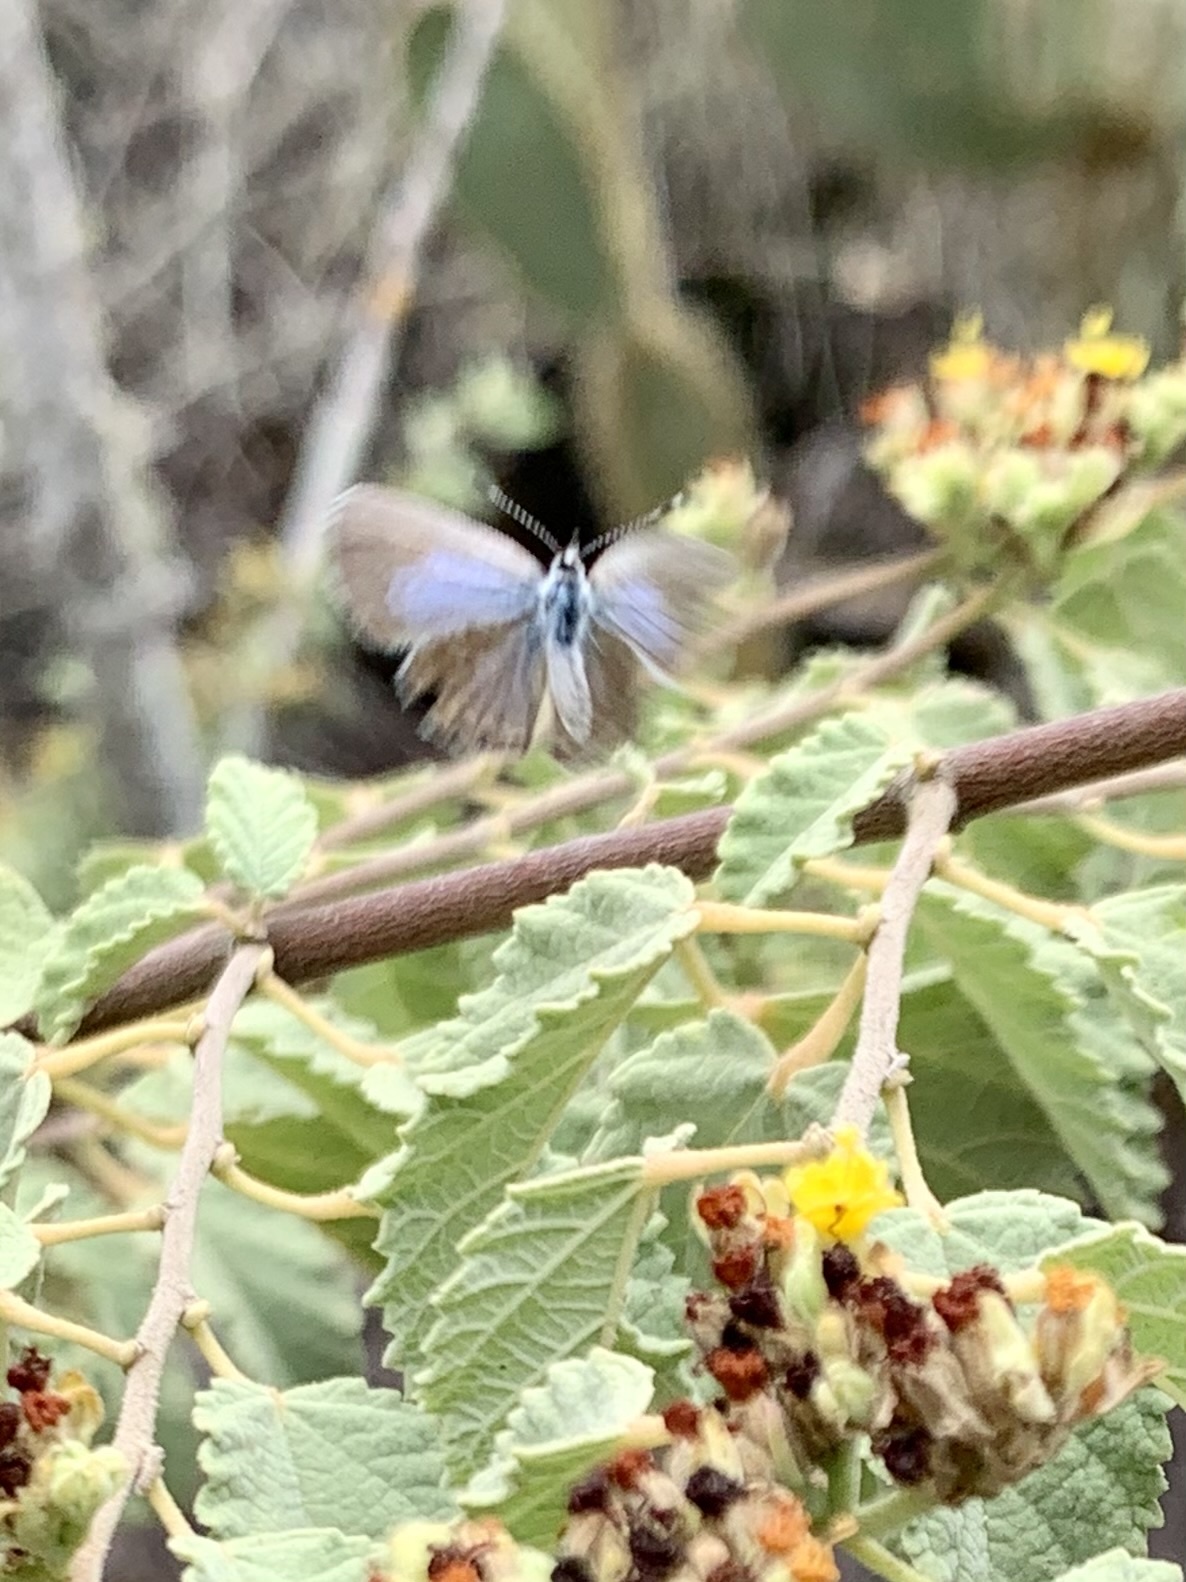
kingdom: Animalia
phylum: Arthropoda
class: Insecta
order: Lepidoptera
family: Lycaenidae
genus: Hemiargus
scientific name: Hemiargus ramon
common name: Ramon blue
